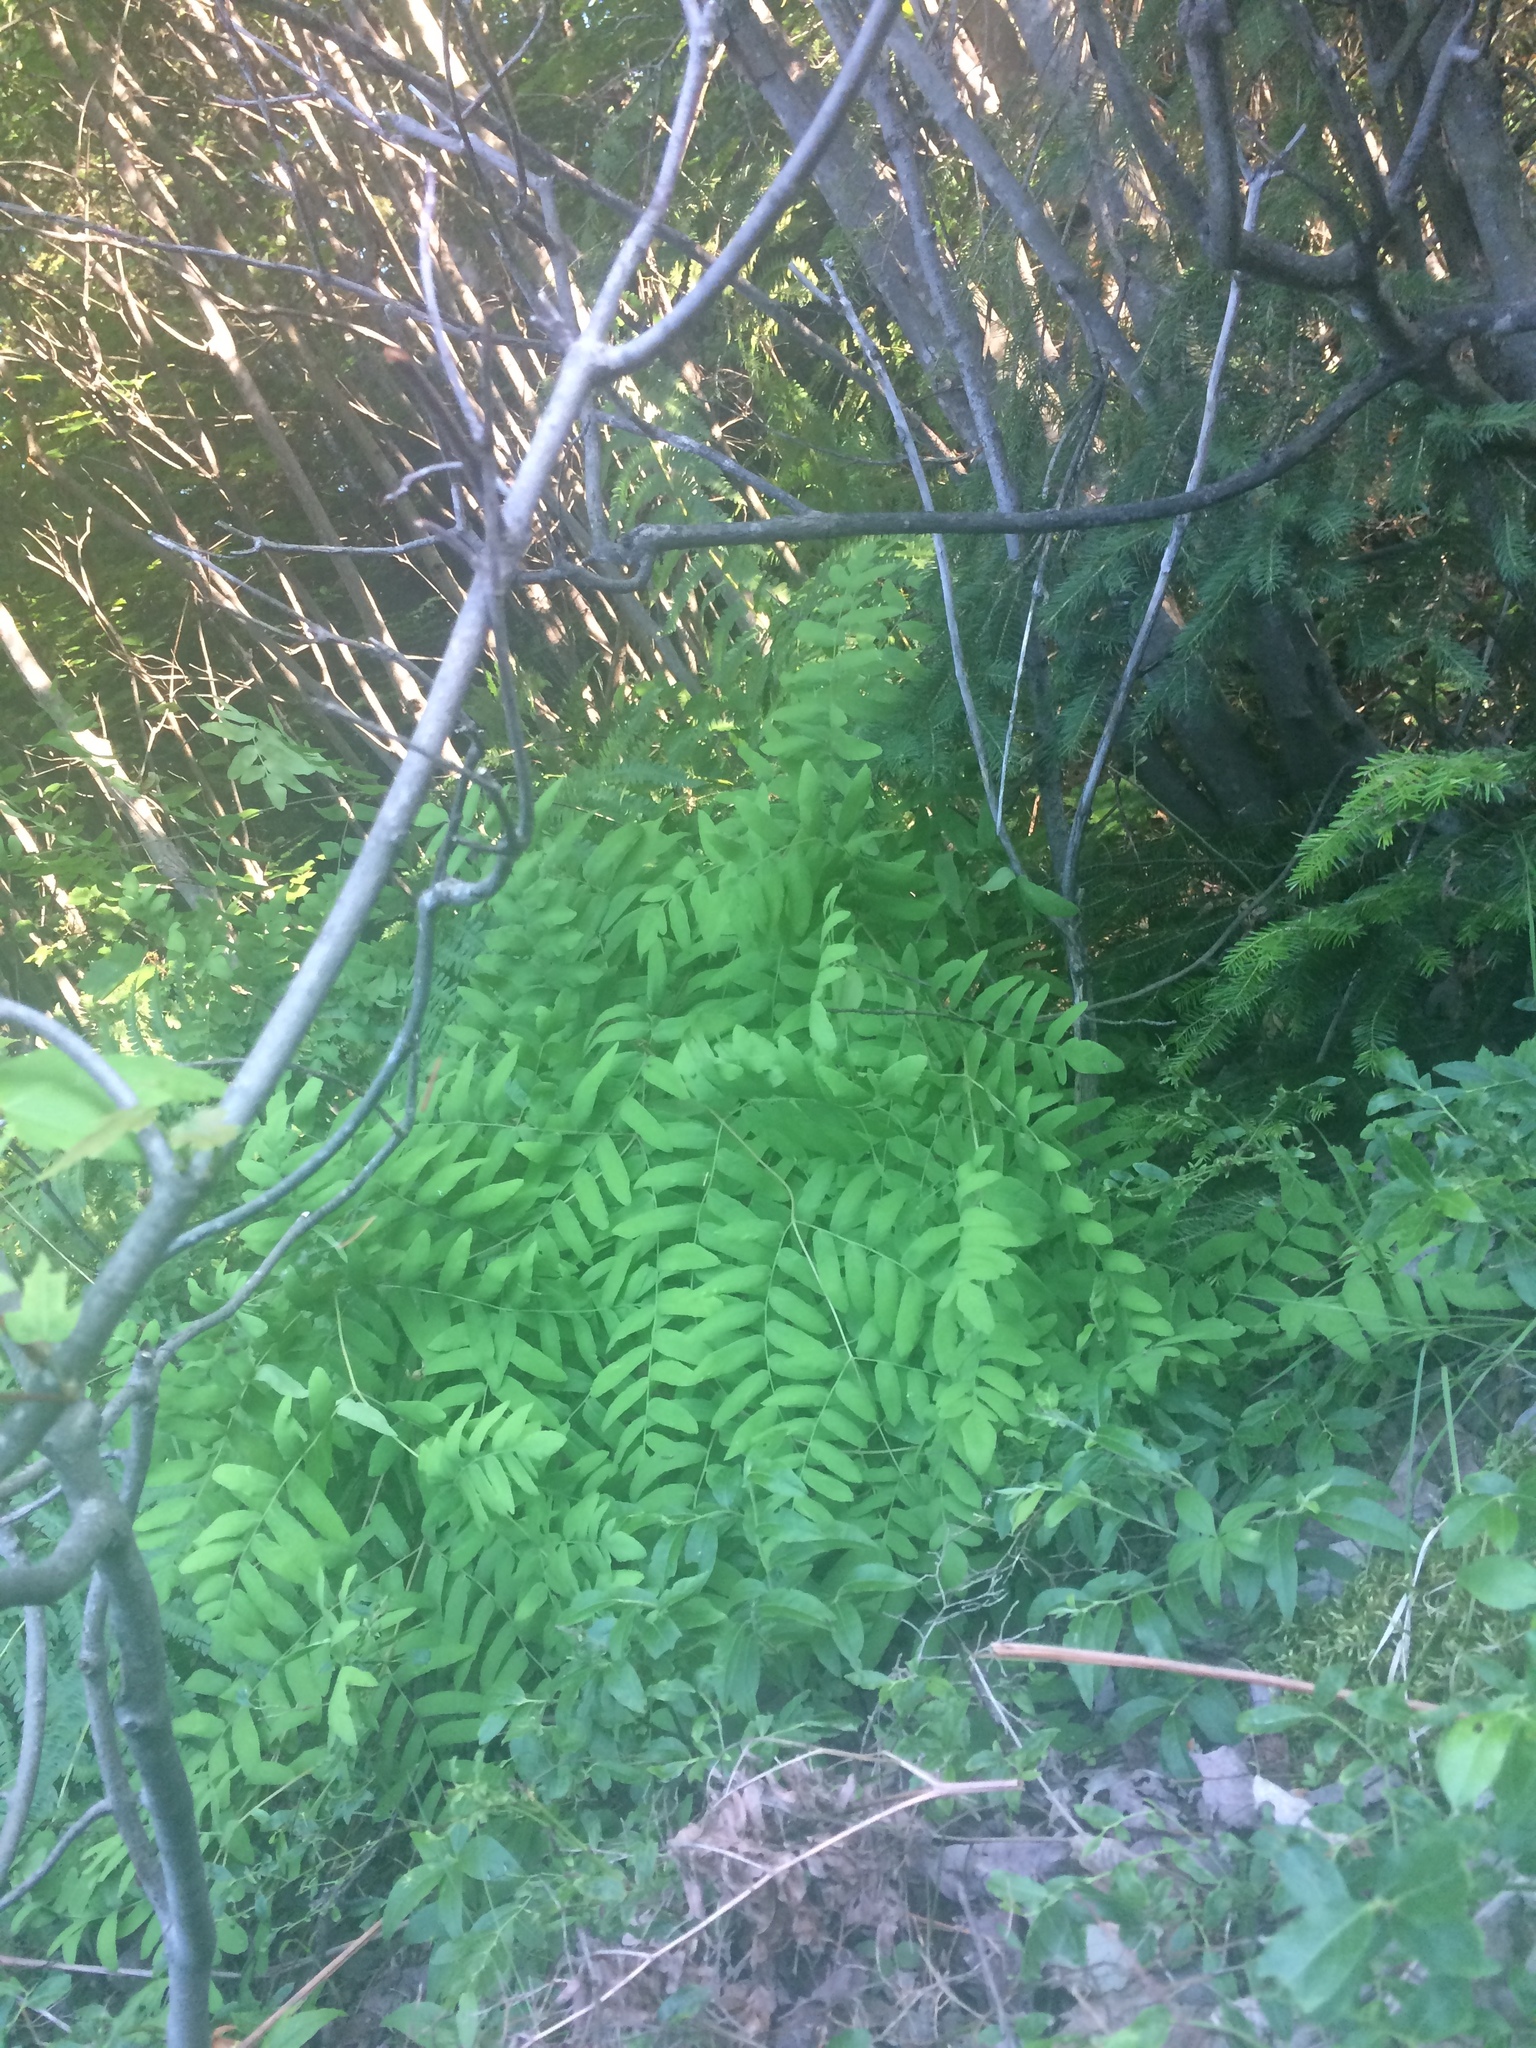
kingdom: Plantae
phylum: Tracheophyta
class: Polypodiopsida
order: Osmundales
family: Osmundaceae
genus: Osmunda
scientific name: Osmunda spectabilis
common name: American royal fern
